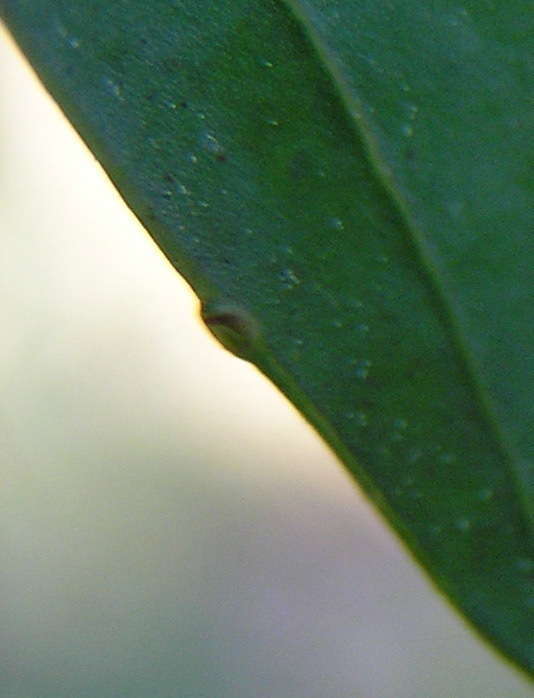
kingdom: Plantae
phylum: Tracheophyta
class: Magnoliopsida
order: Fabales
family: Fabaceae
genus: Acacia
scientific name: Acacia myrtifolia
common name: Myrtle wattle
